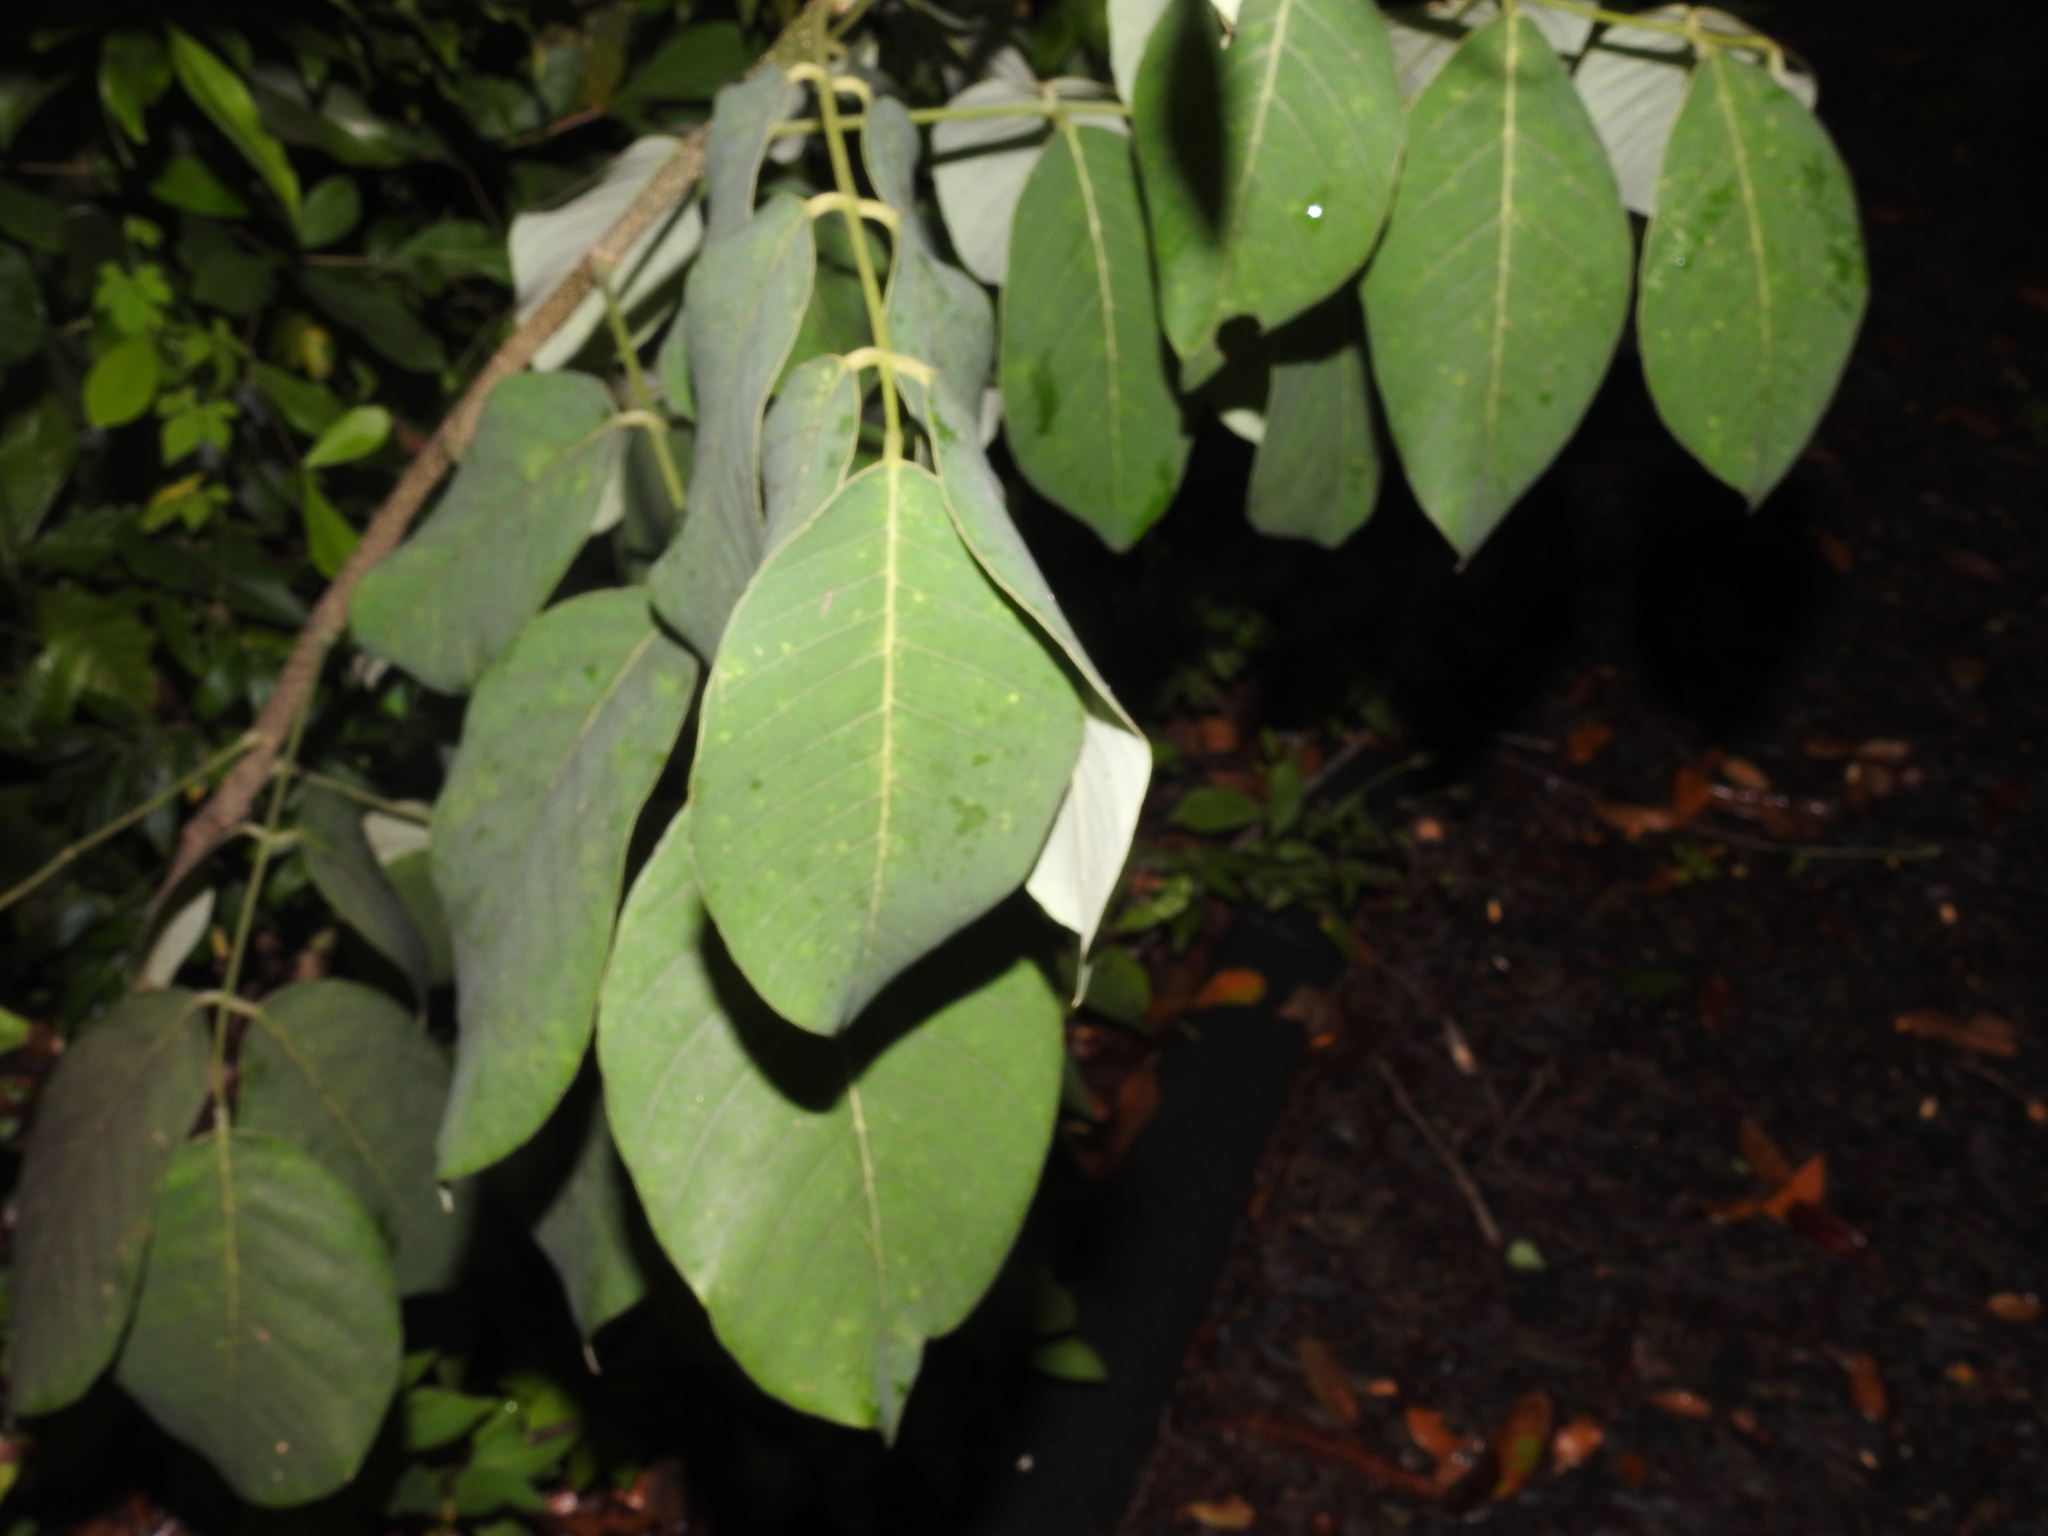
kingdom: Plantae
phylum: Tracheophyta
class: Magnoliopsida
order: Fabales
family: Fabaceae
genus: Piscidia
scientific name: Piscidia piscipula
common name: Florida fishpoison tree
